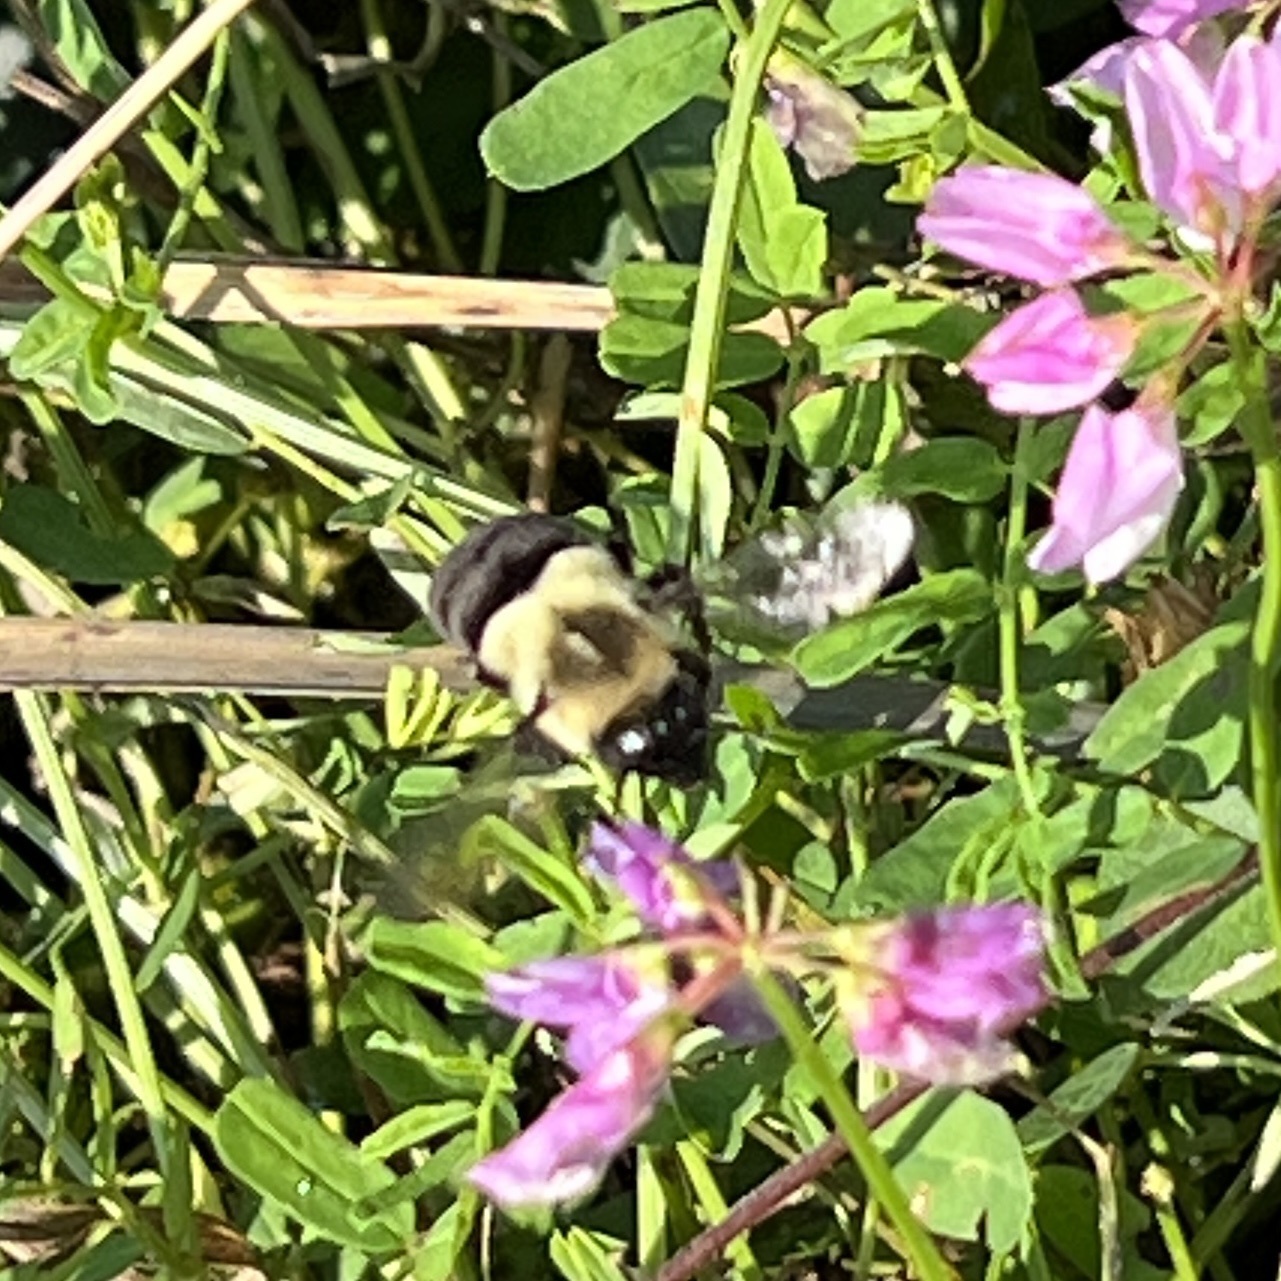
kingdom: Animalia
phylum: Arthropoda
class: Insecta
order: Hymenoptera
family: Apidae
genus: Bombus
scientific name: Bombus impatiens
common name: Common eastern bumble bee
